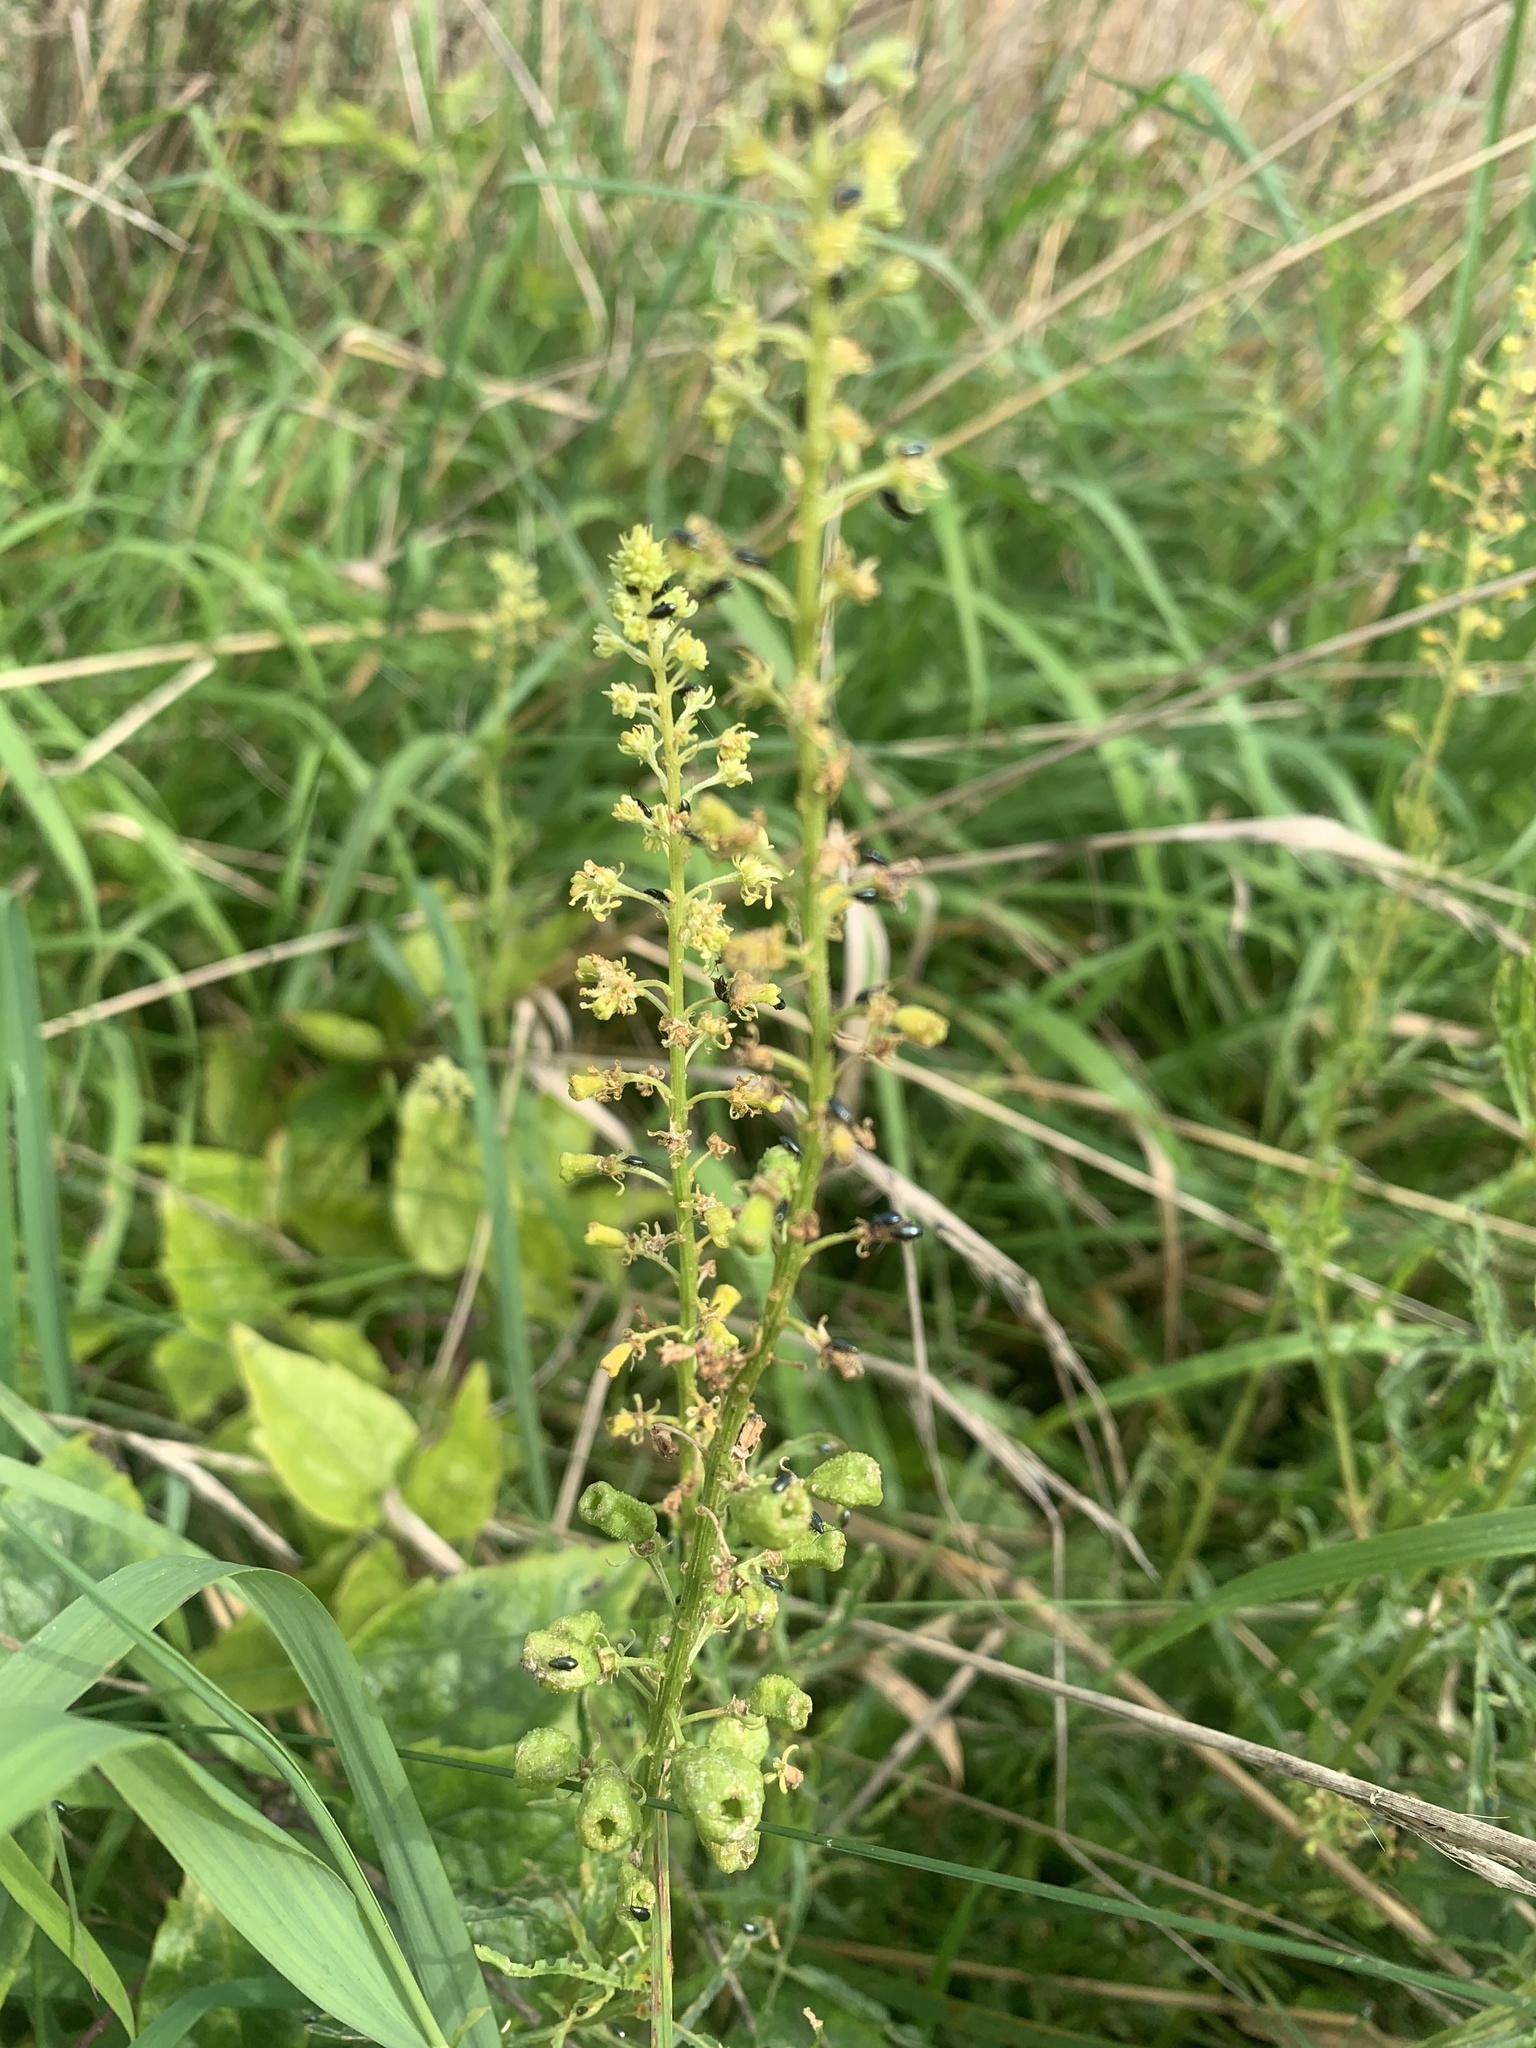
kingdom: Plantae
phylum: Tracheophyta
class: Magnoliopsida
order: Brassicales
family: Resedaceae
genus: Reseda
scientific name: Reseda lutea
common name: Wild mignonette
